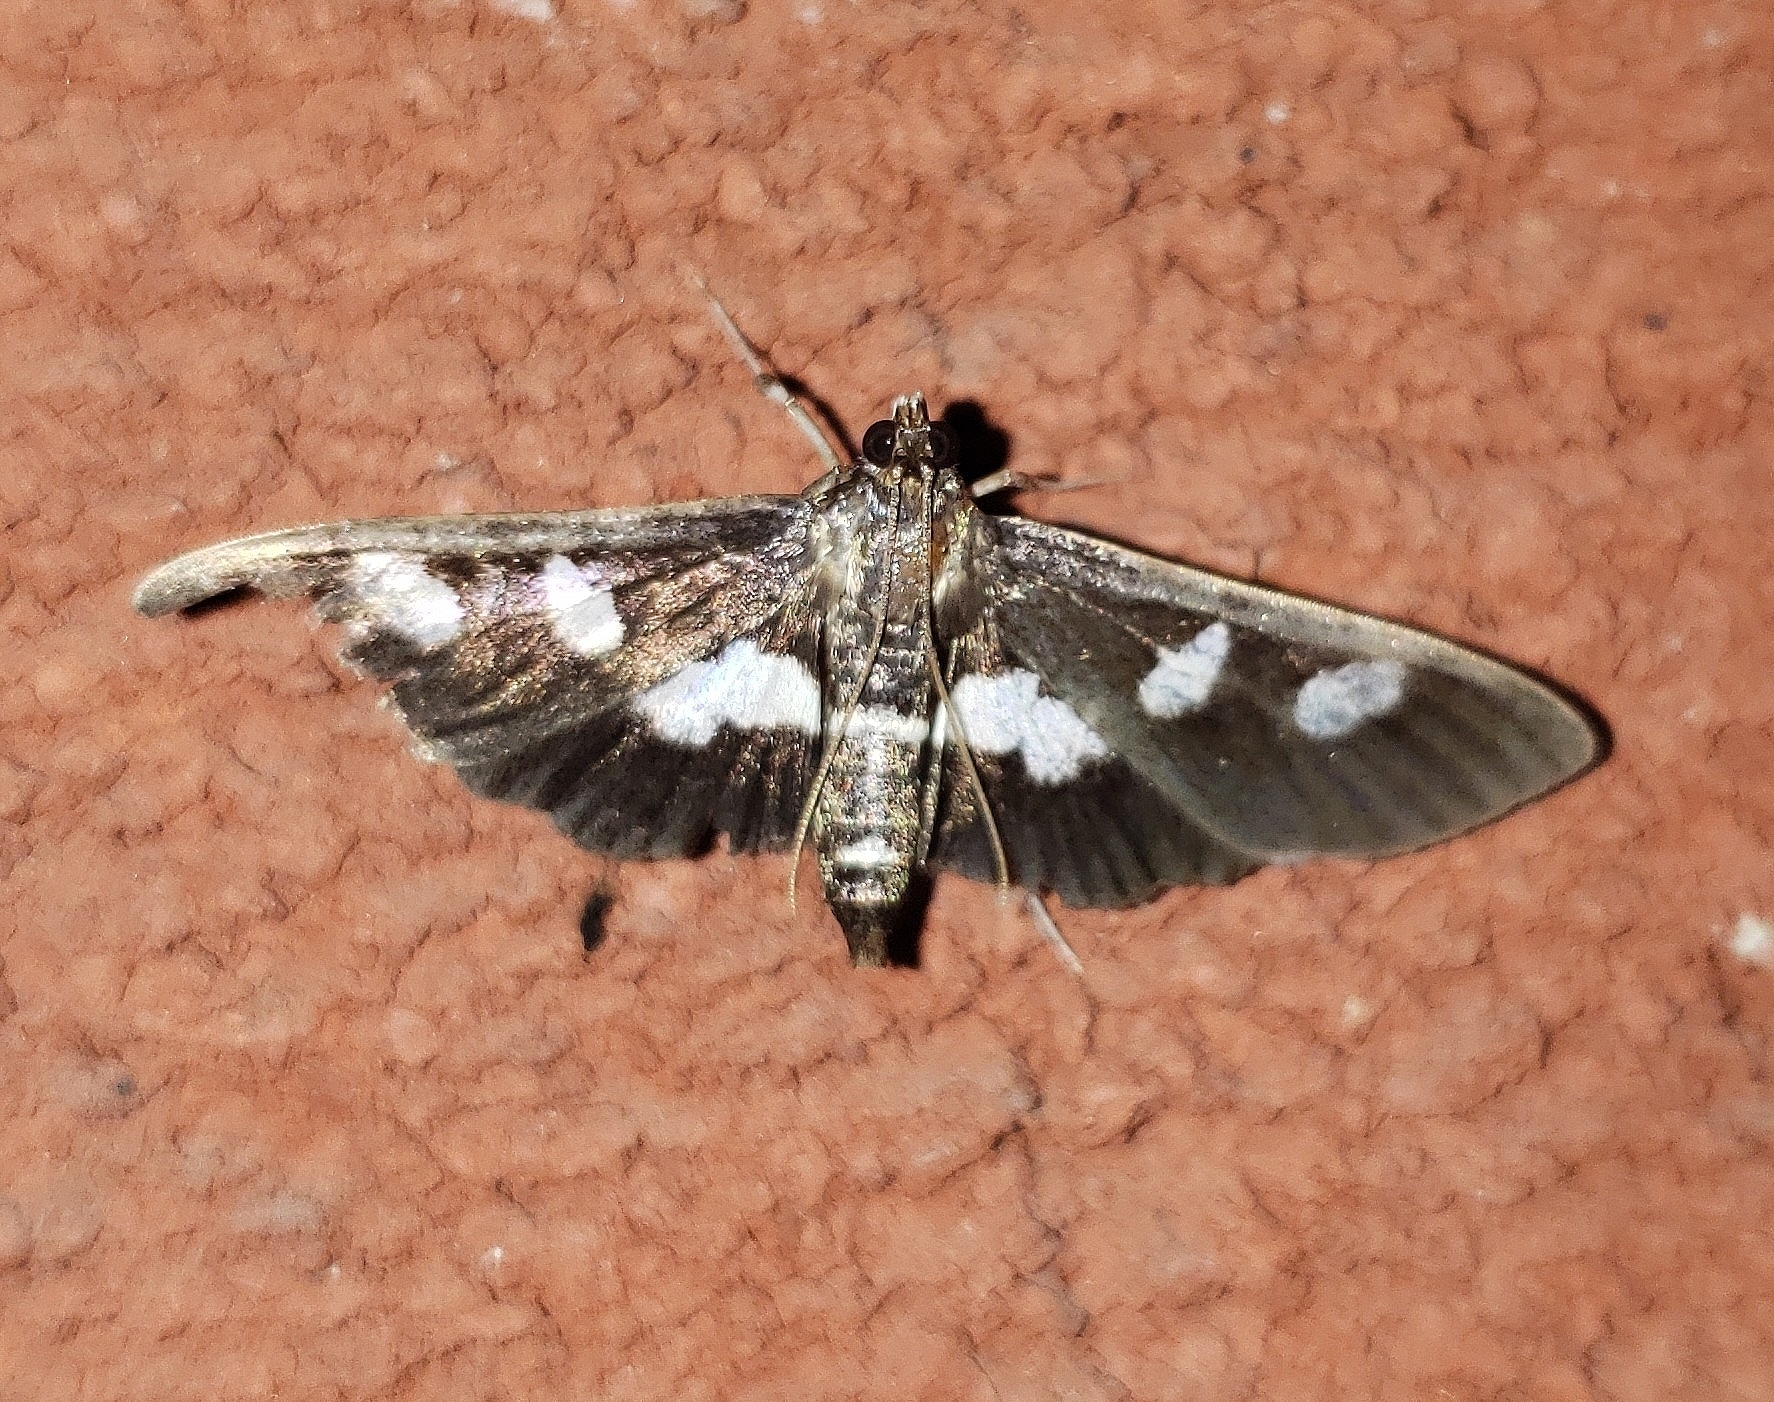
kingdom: Animalia
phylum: Arthropoda
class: Insecta
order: Lepidoptera
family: Crambidae
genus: Desmia
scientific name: Desmia
